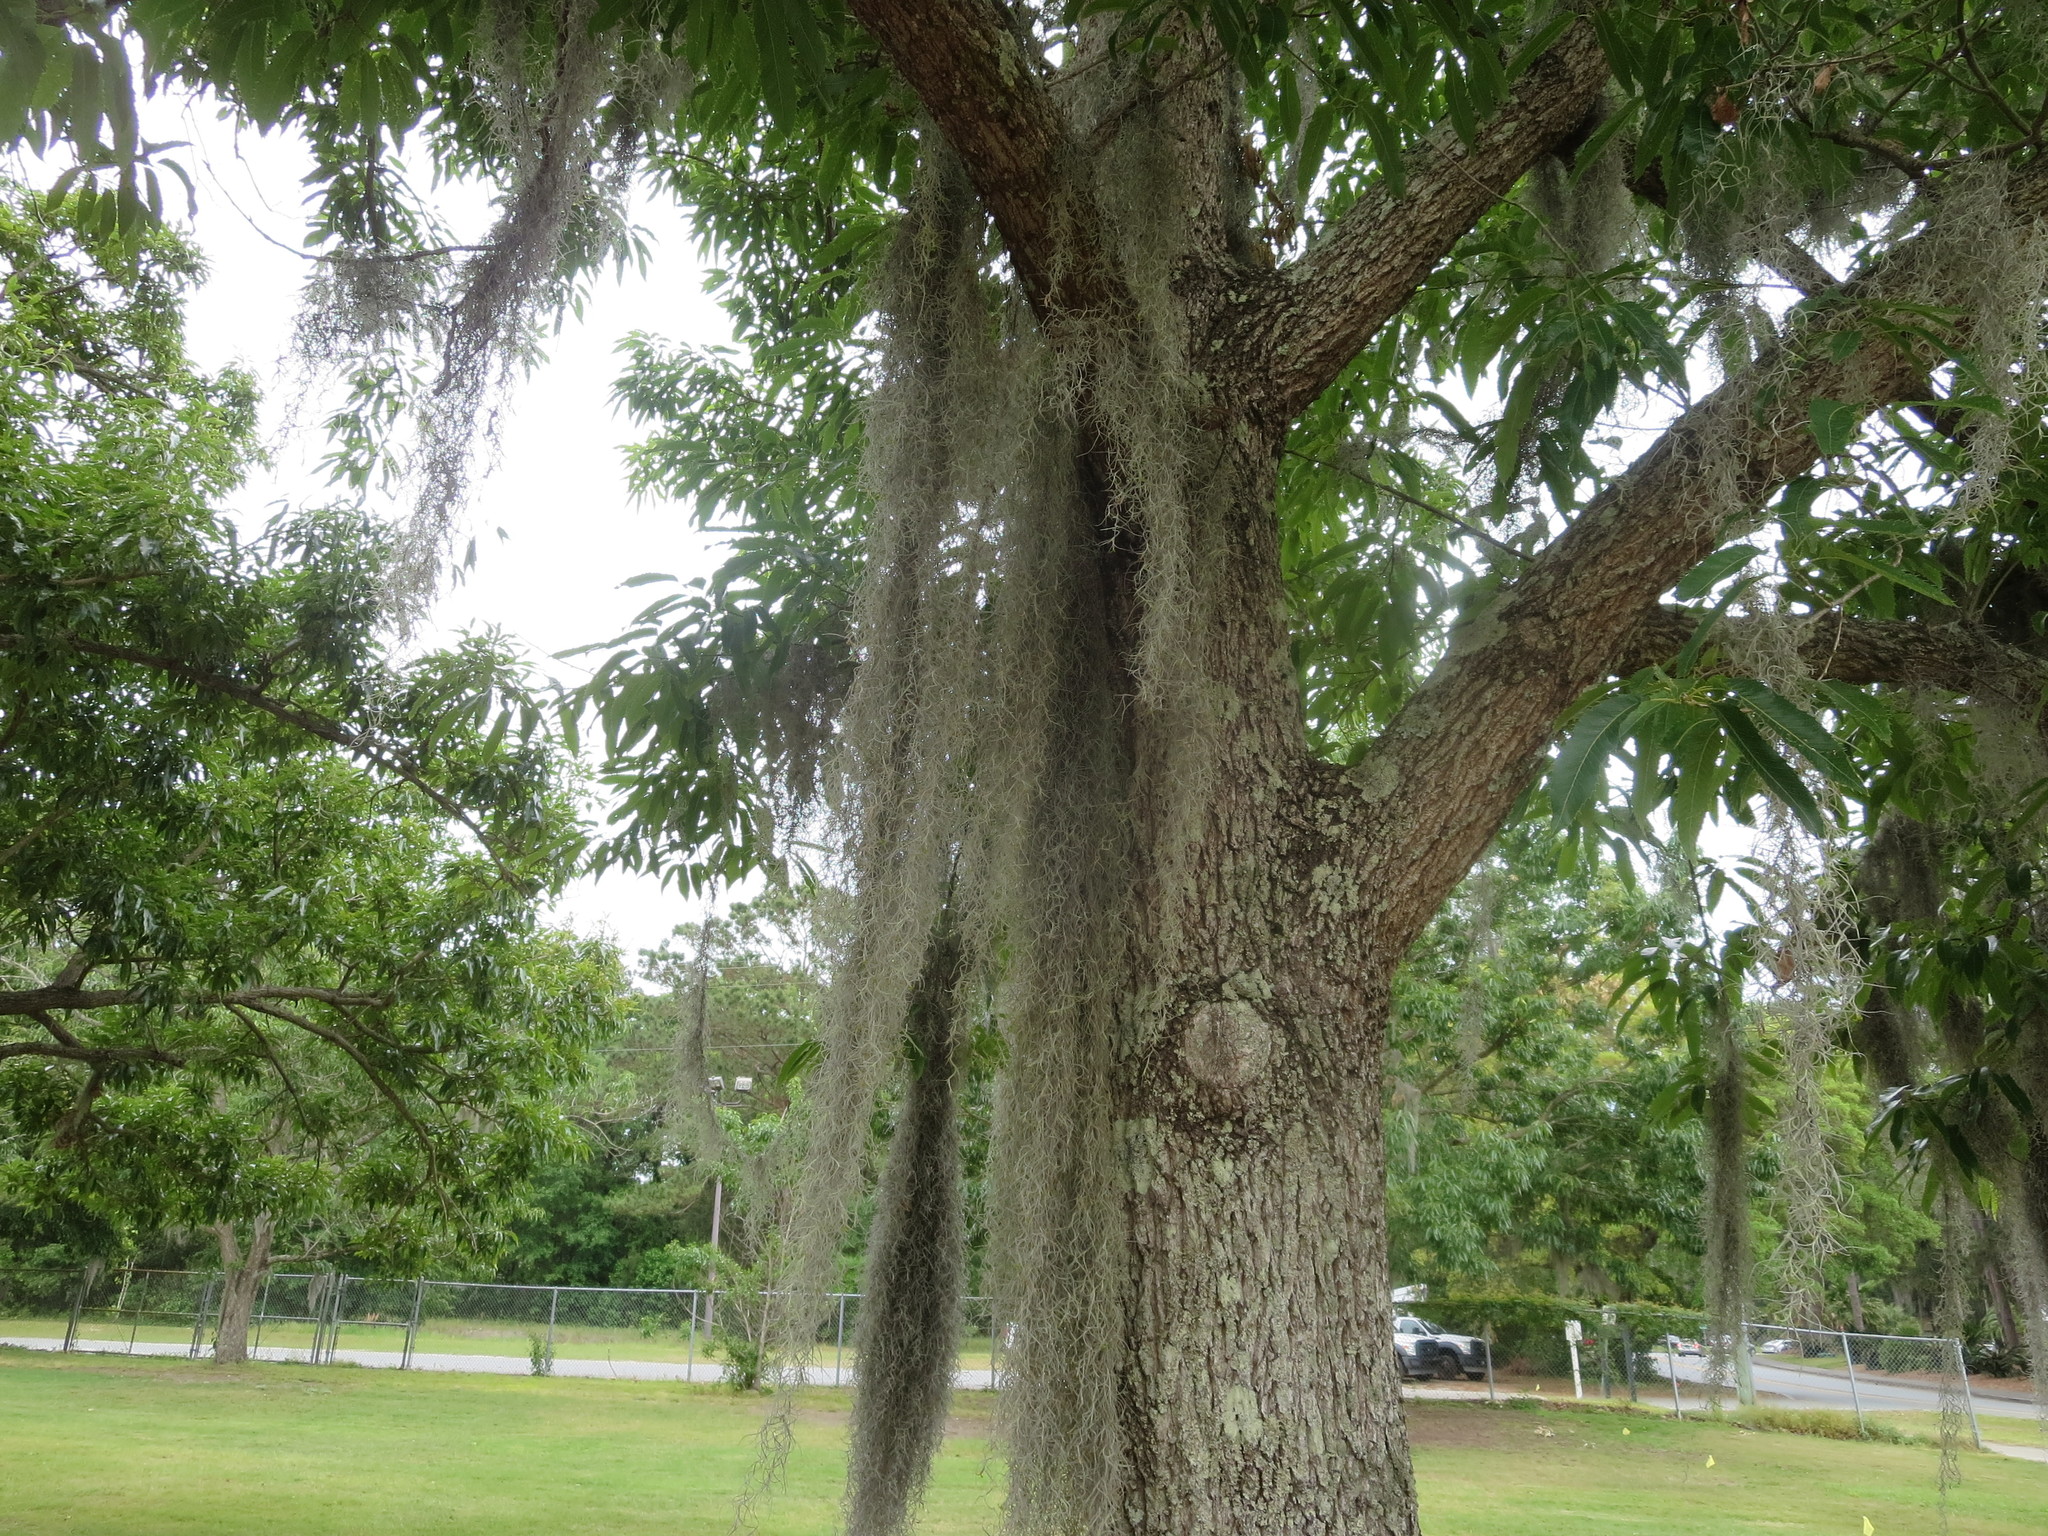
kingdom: Plantae
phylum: Tracheophyta
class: Liliopsida
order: Poales
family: Bromeliaceae
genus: Tillandsia
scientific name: Tillandsia usneoides
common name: Spanish moss
